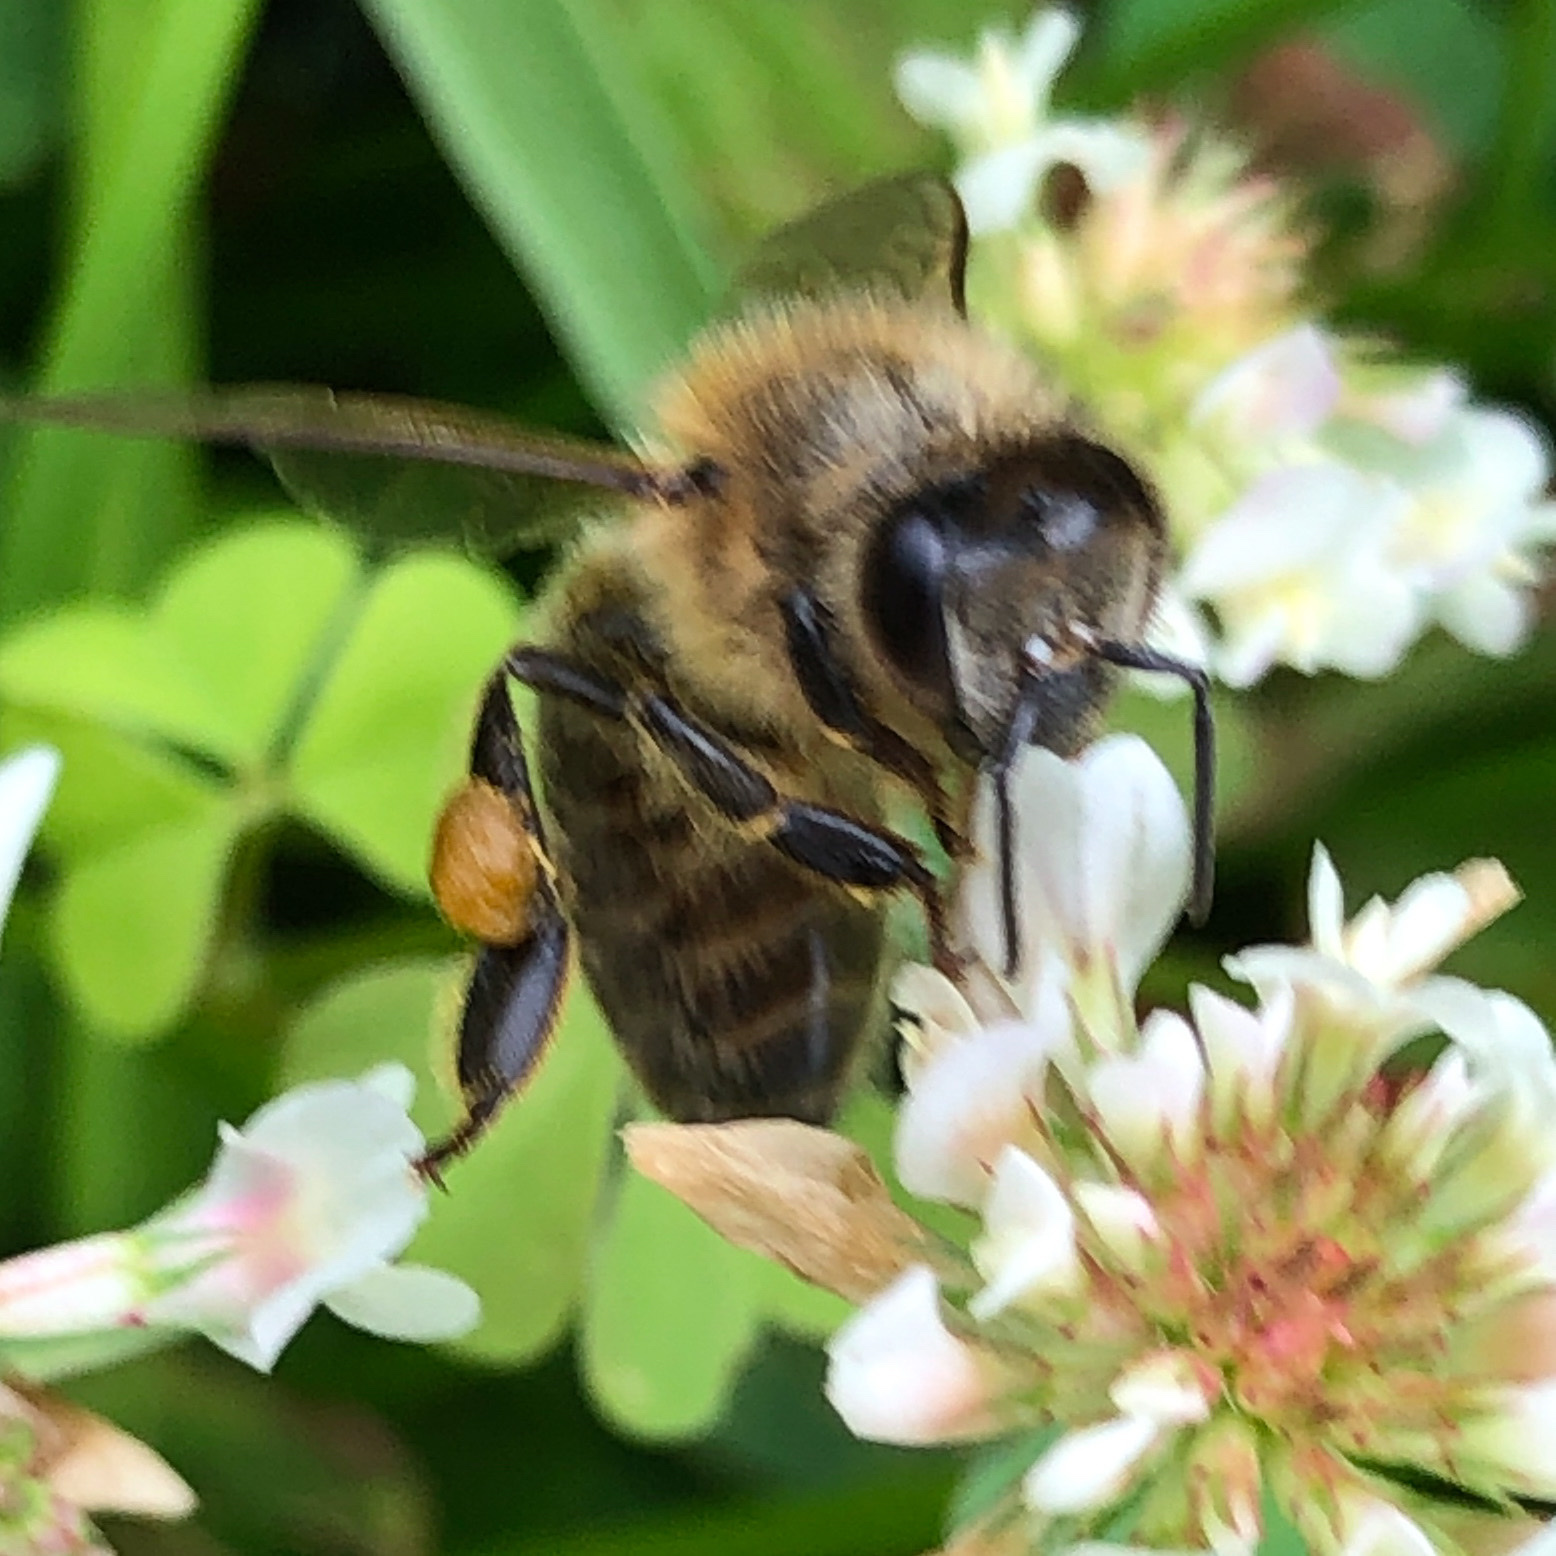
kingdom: Animalia
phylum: Arthropoda
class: Insecta
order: Hymenoptera
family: Apidae
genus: Apis
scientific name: Apis mellifera
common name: Honey bee
